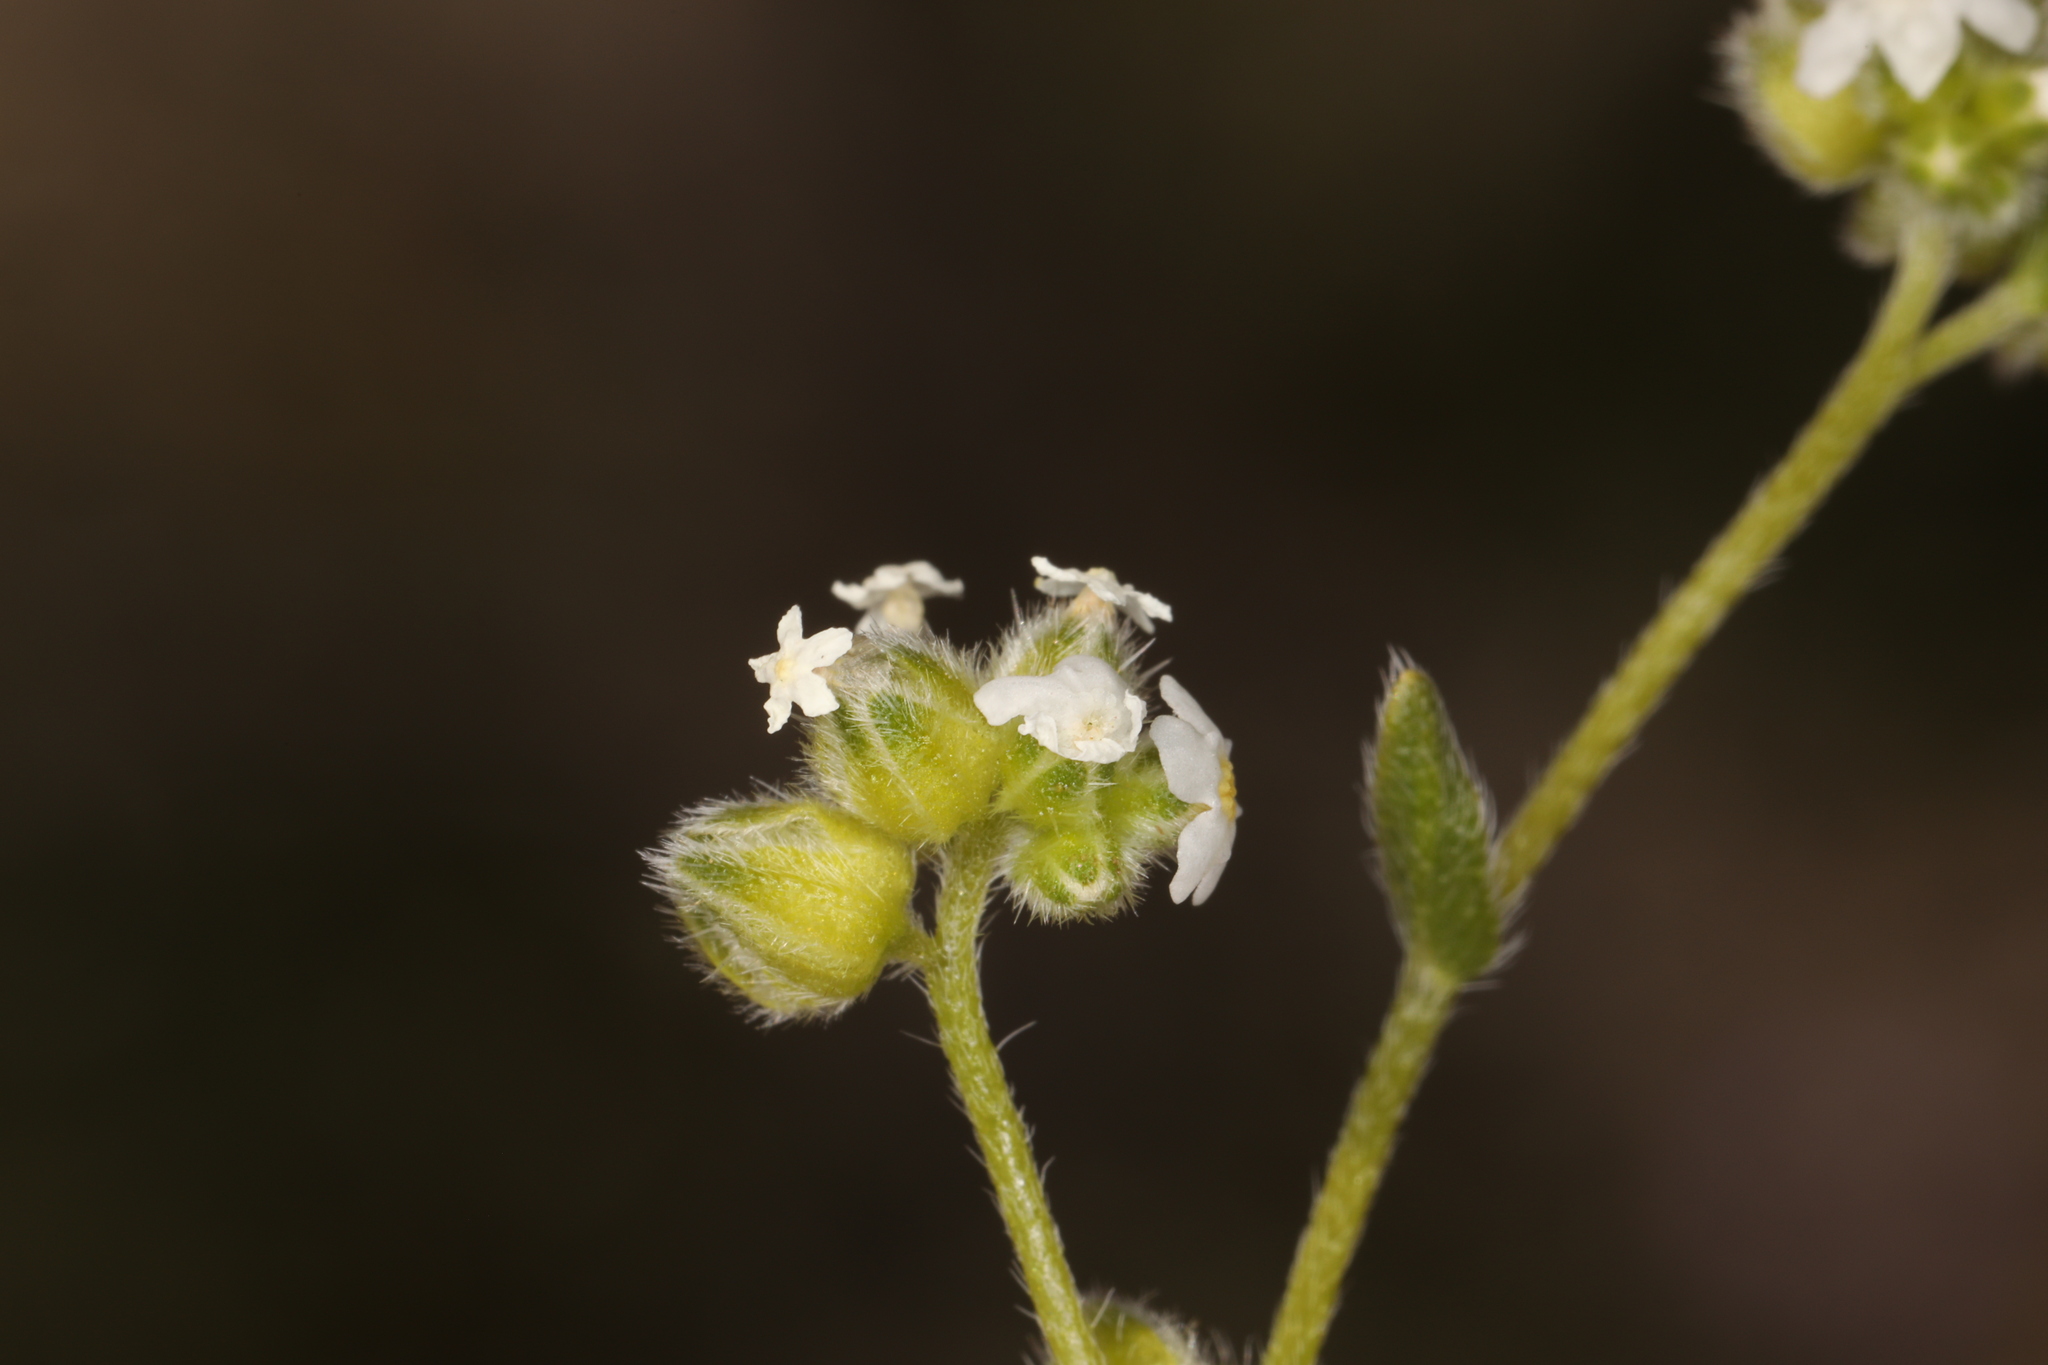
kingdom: Plantae
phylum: Tracheophyta
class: Magnoliopsida
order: Boraginales
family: Boraginaceae
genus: Cryptantha
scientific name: Cryptantha pterocarya
